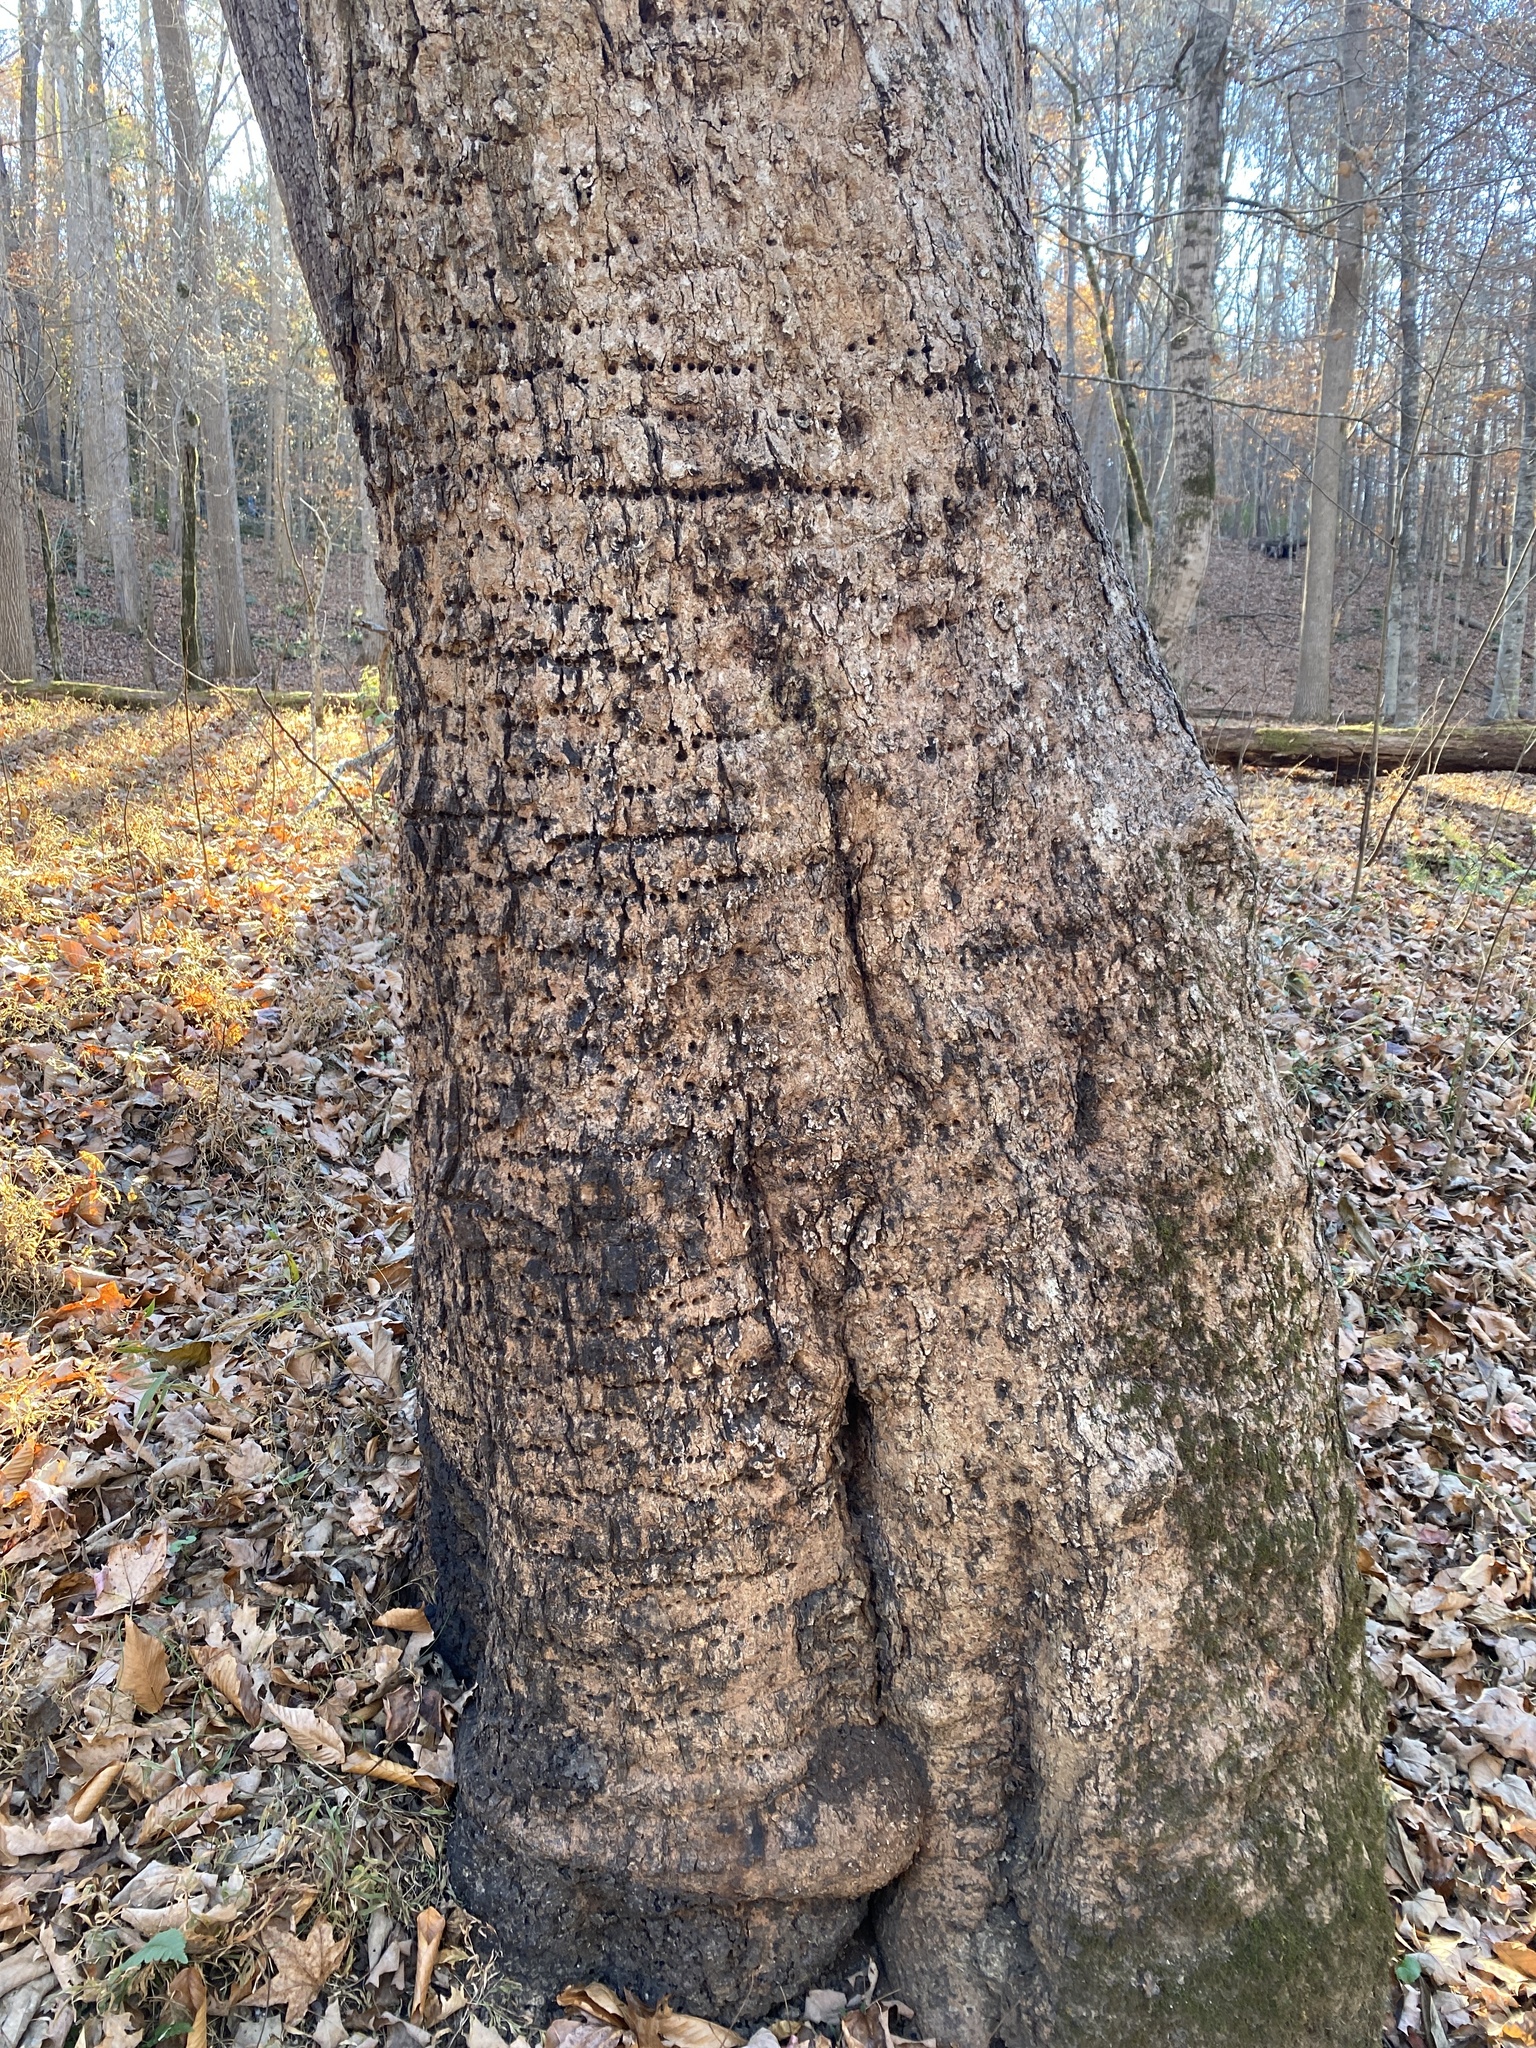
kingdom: Animalia
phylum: Chordata
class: Aves
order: Piciformes
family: Picidae
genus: Sphyrapicus
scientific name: Sphyrapicus varius
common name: Yellow-bellied sapsucker
